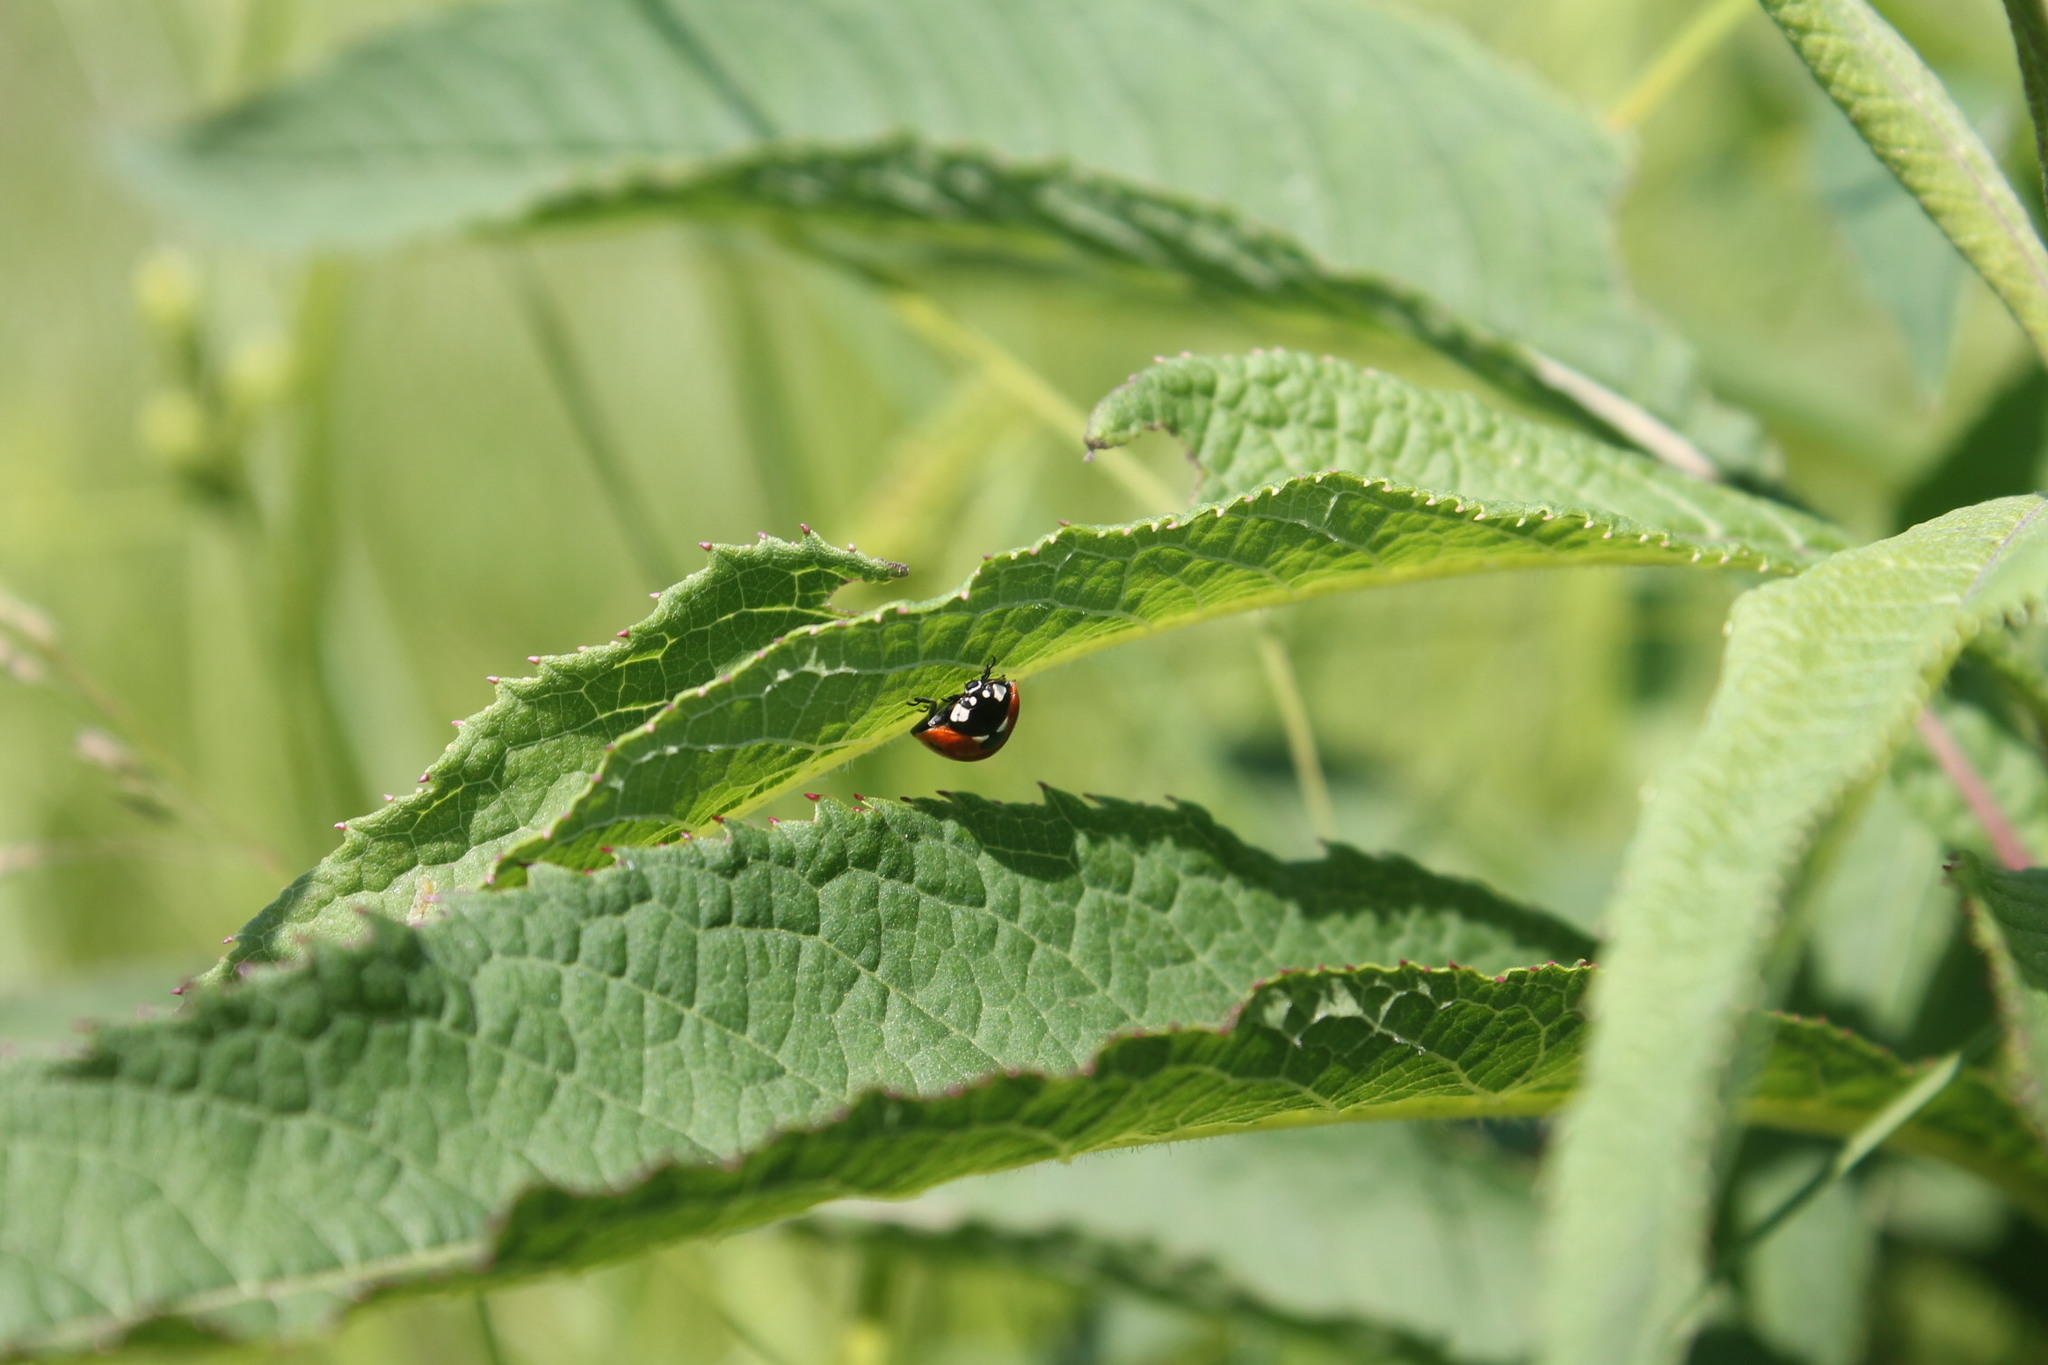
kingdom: Animalia
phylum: Arthropoda
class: Insecta
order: Coleoptera
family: Coccinellidae
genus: Coccinella
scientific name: Coccinella septempunctata
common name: Sevenspotted lady beetle
